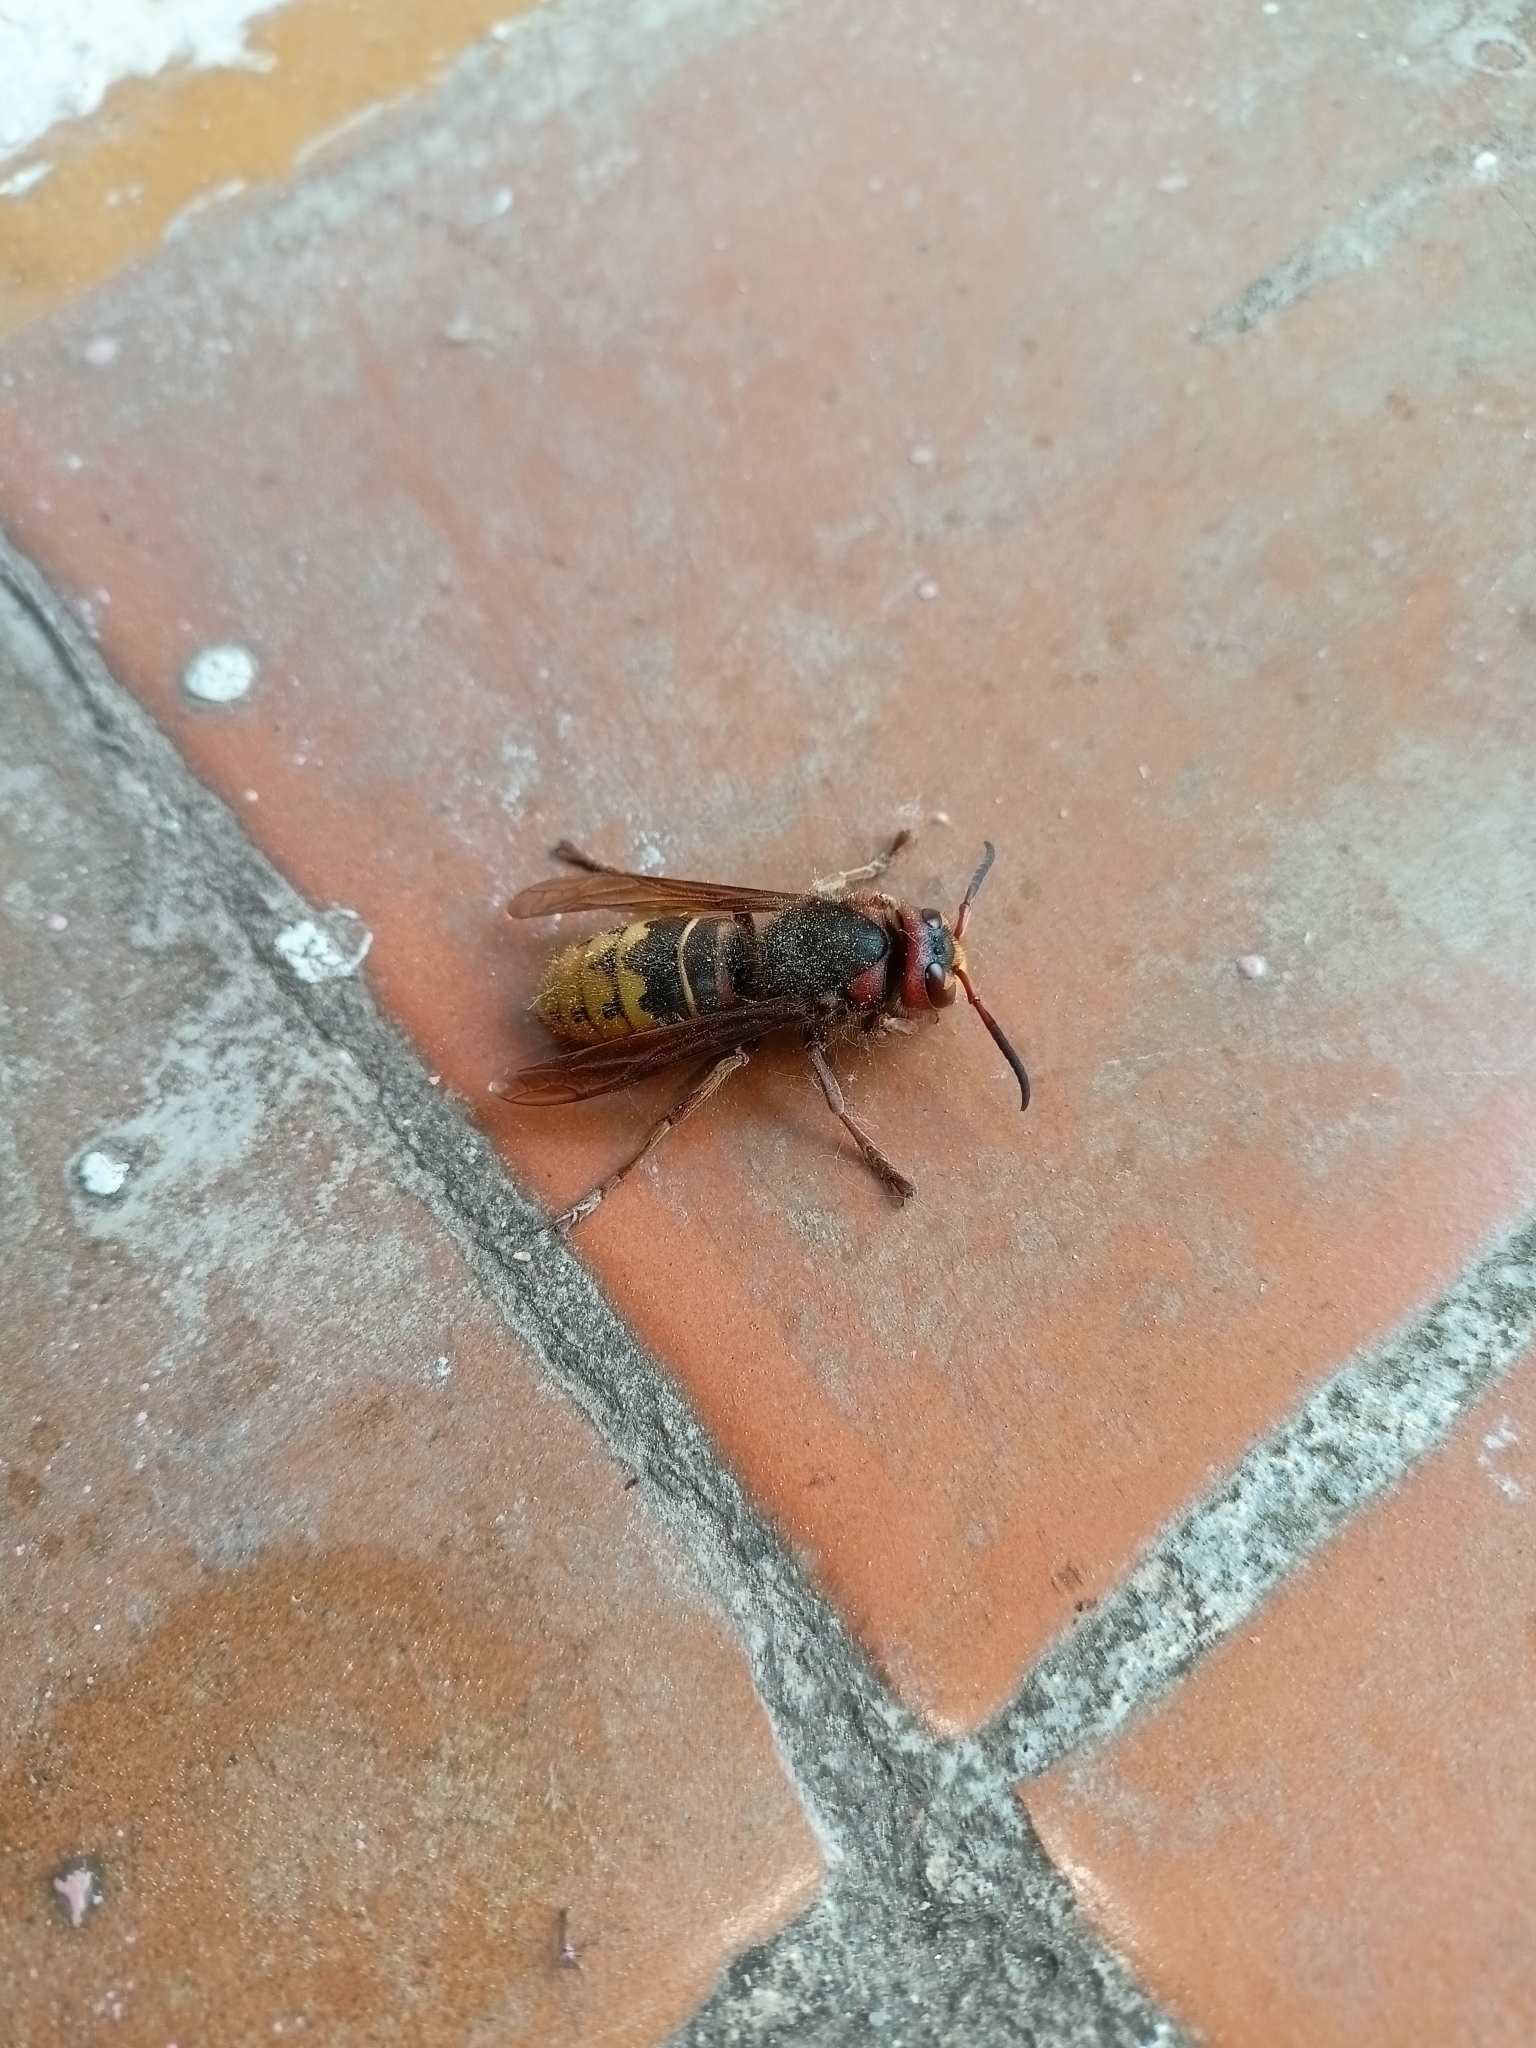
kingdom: Animalia
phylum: Arthropoda
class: Insecta
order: Hymenoptera
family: Vespidae
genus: Vespa
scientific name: Vespa crabro
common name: Hornet
